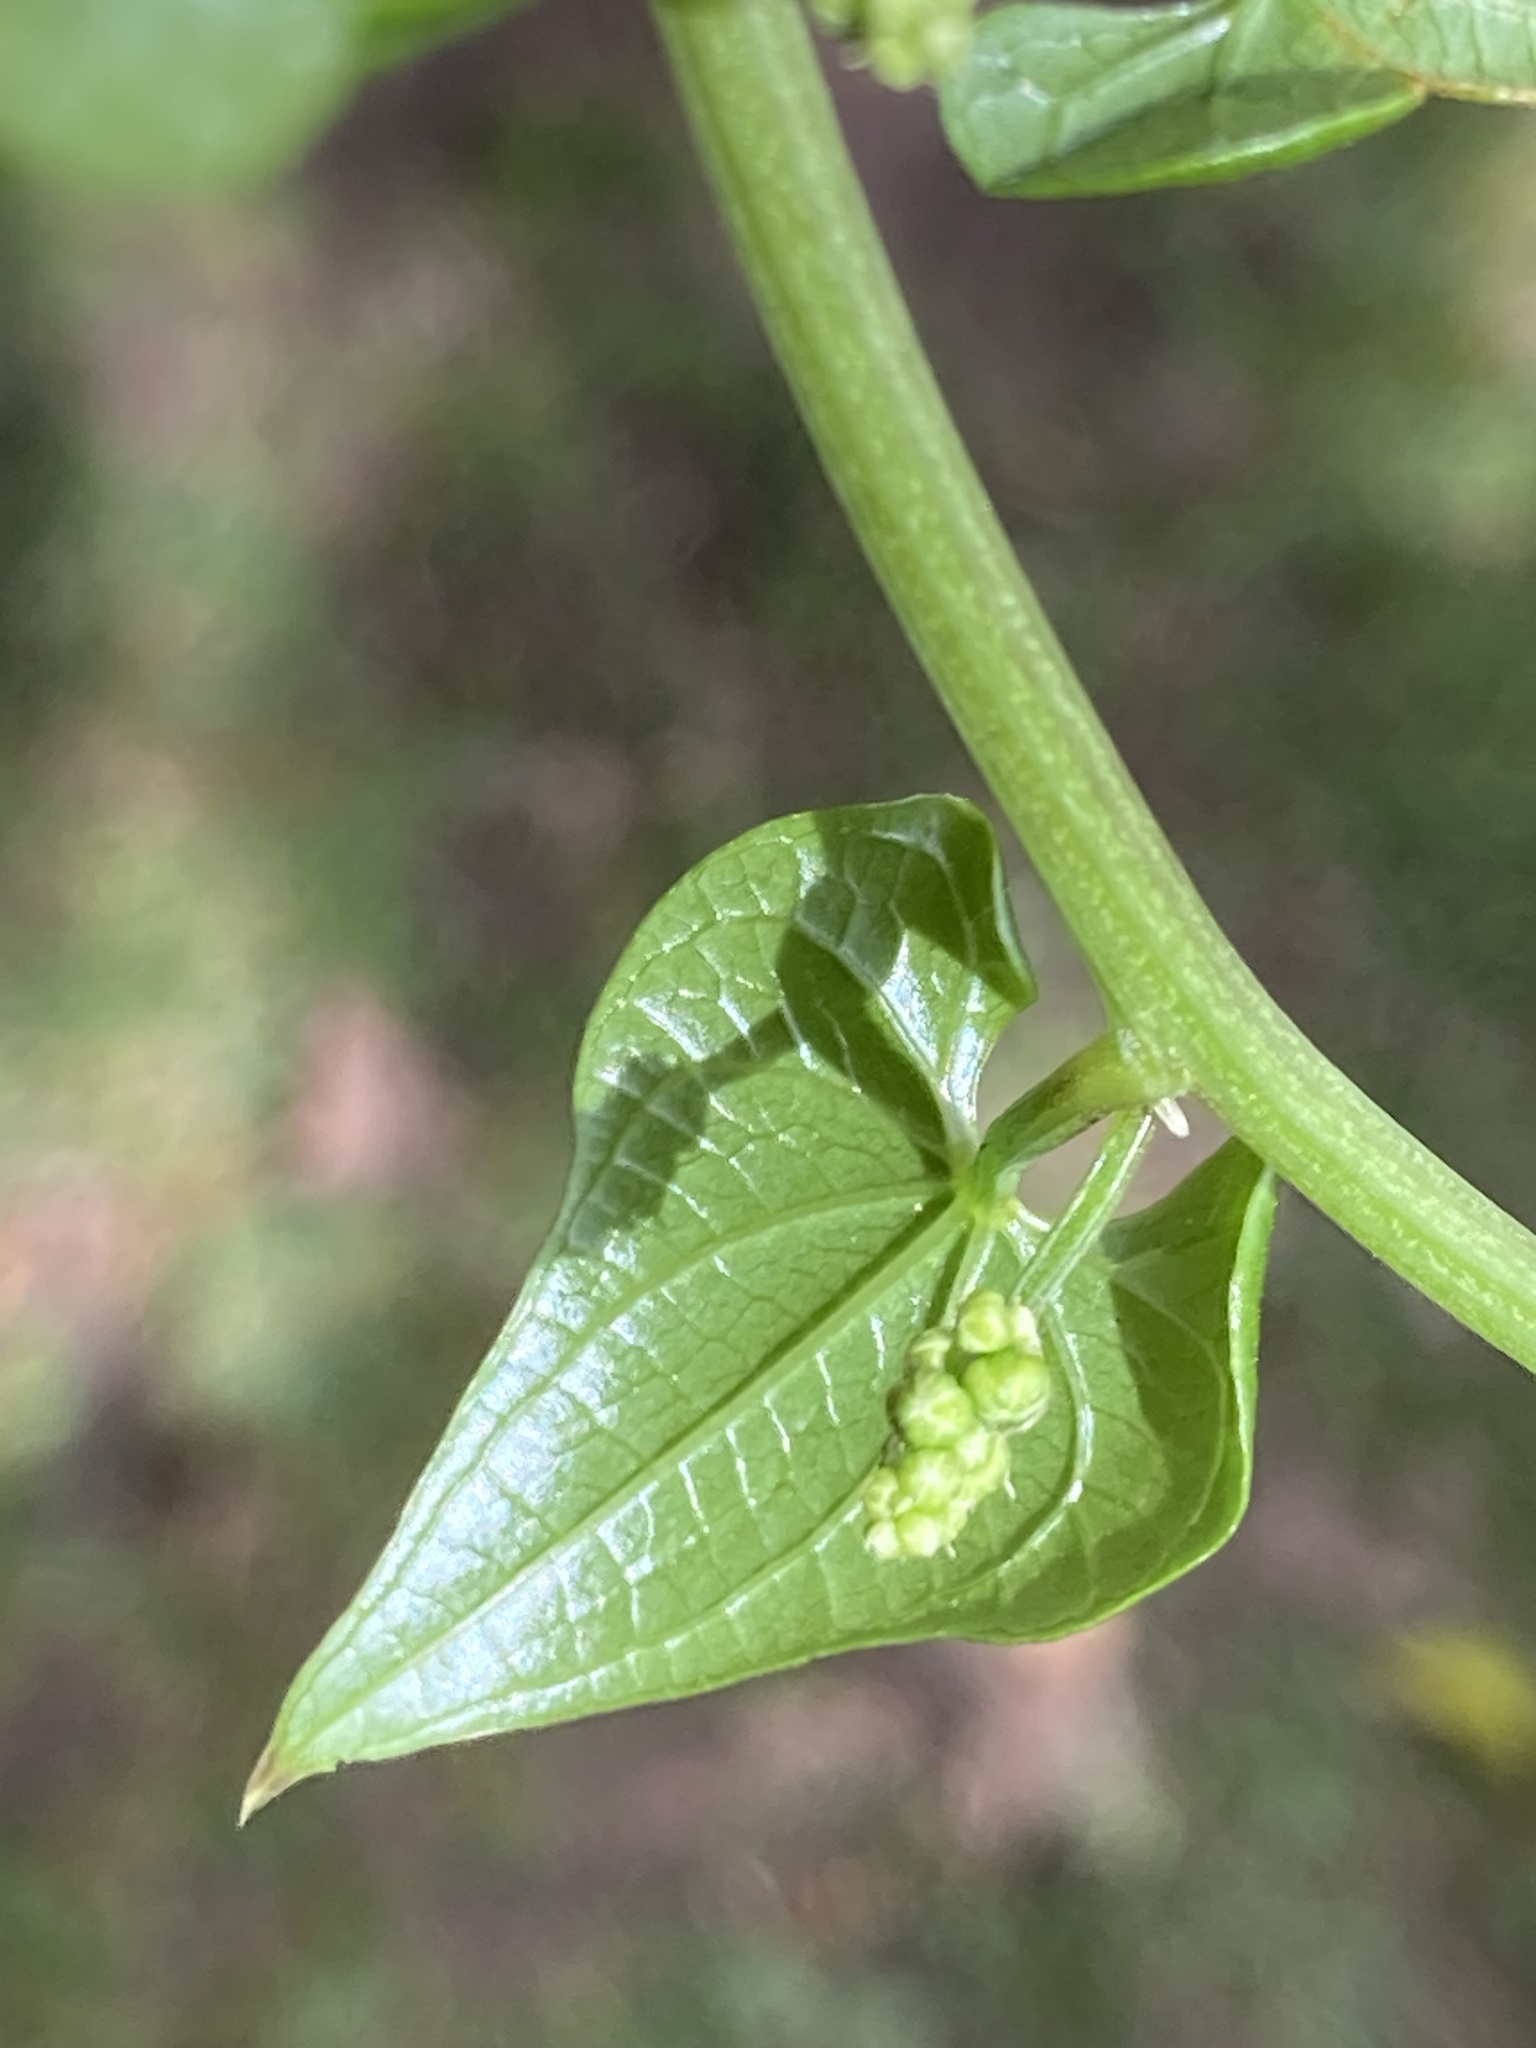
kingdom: Plantae
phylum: Tracheophyta
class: Liliopsida
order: Dioscoreales
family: Dioscoreaceae
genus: Dioscorea
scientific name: Dioscorea communis
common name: Black-bindweed
